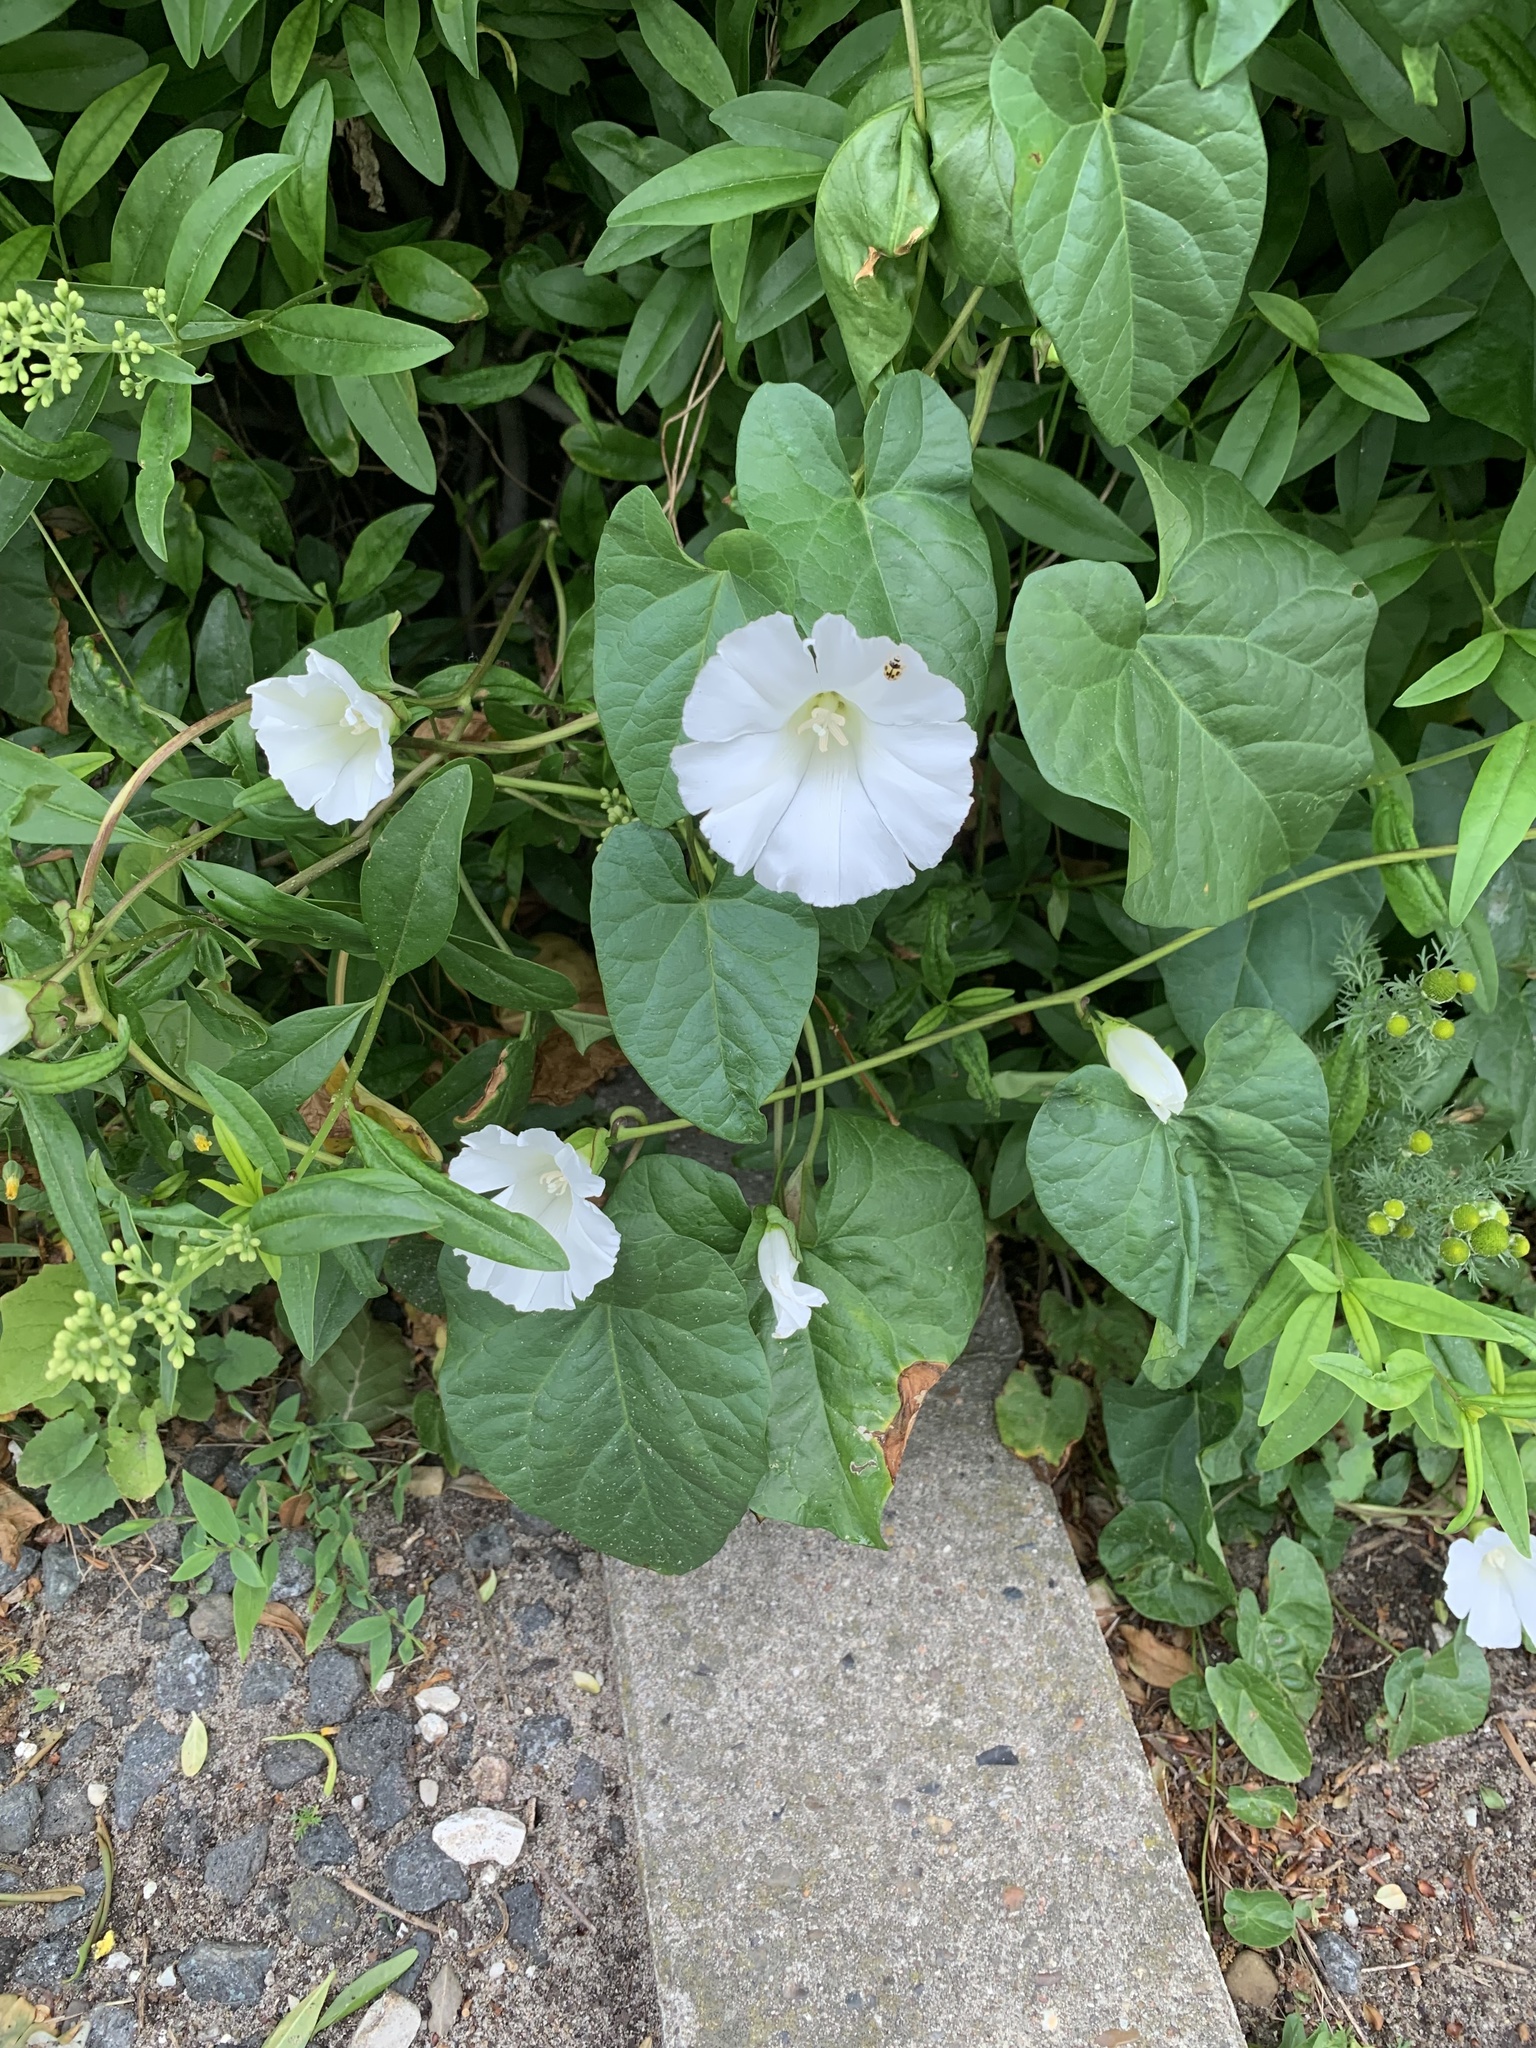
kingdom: Plantae
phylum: Tracheophyta
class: Magnoliopsida
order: Solanales
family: Convolvulaceae
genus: Calystegia
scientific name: Calystegia sepium
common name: Hedge bindweed
